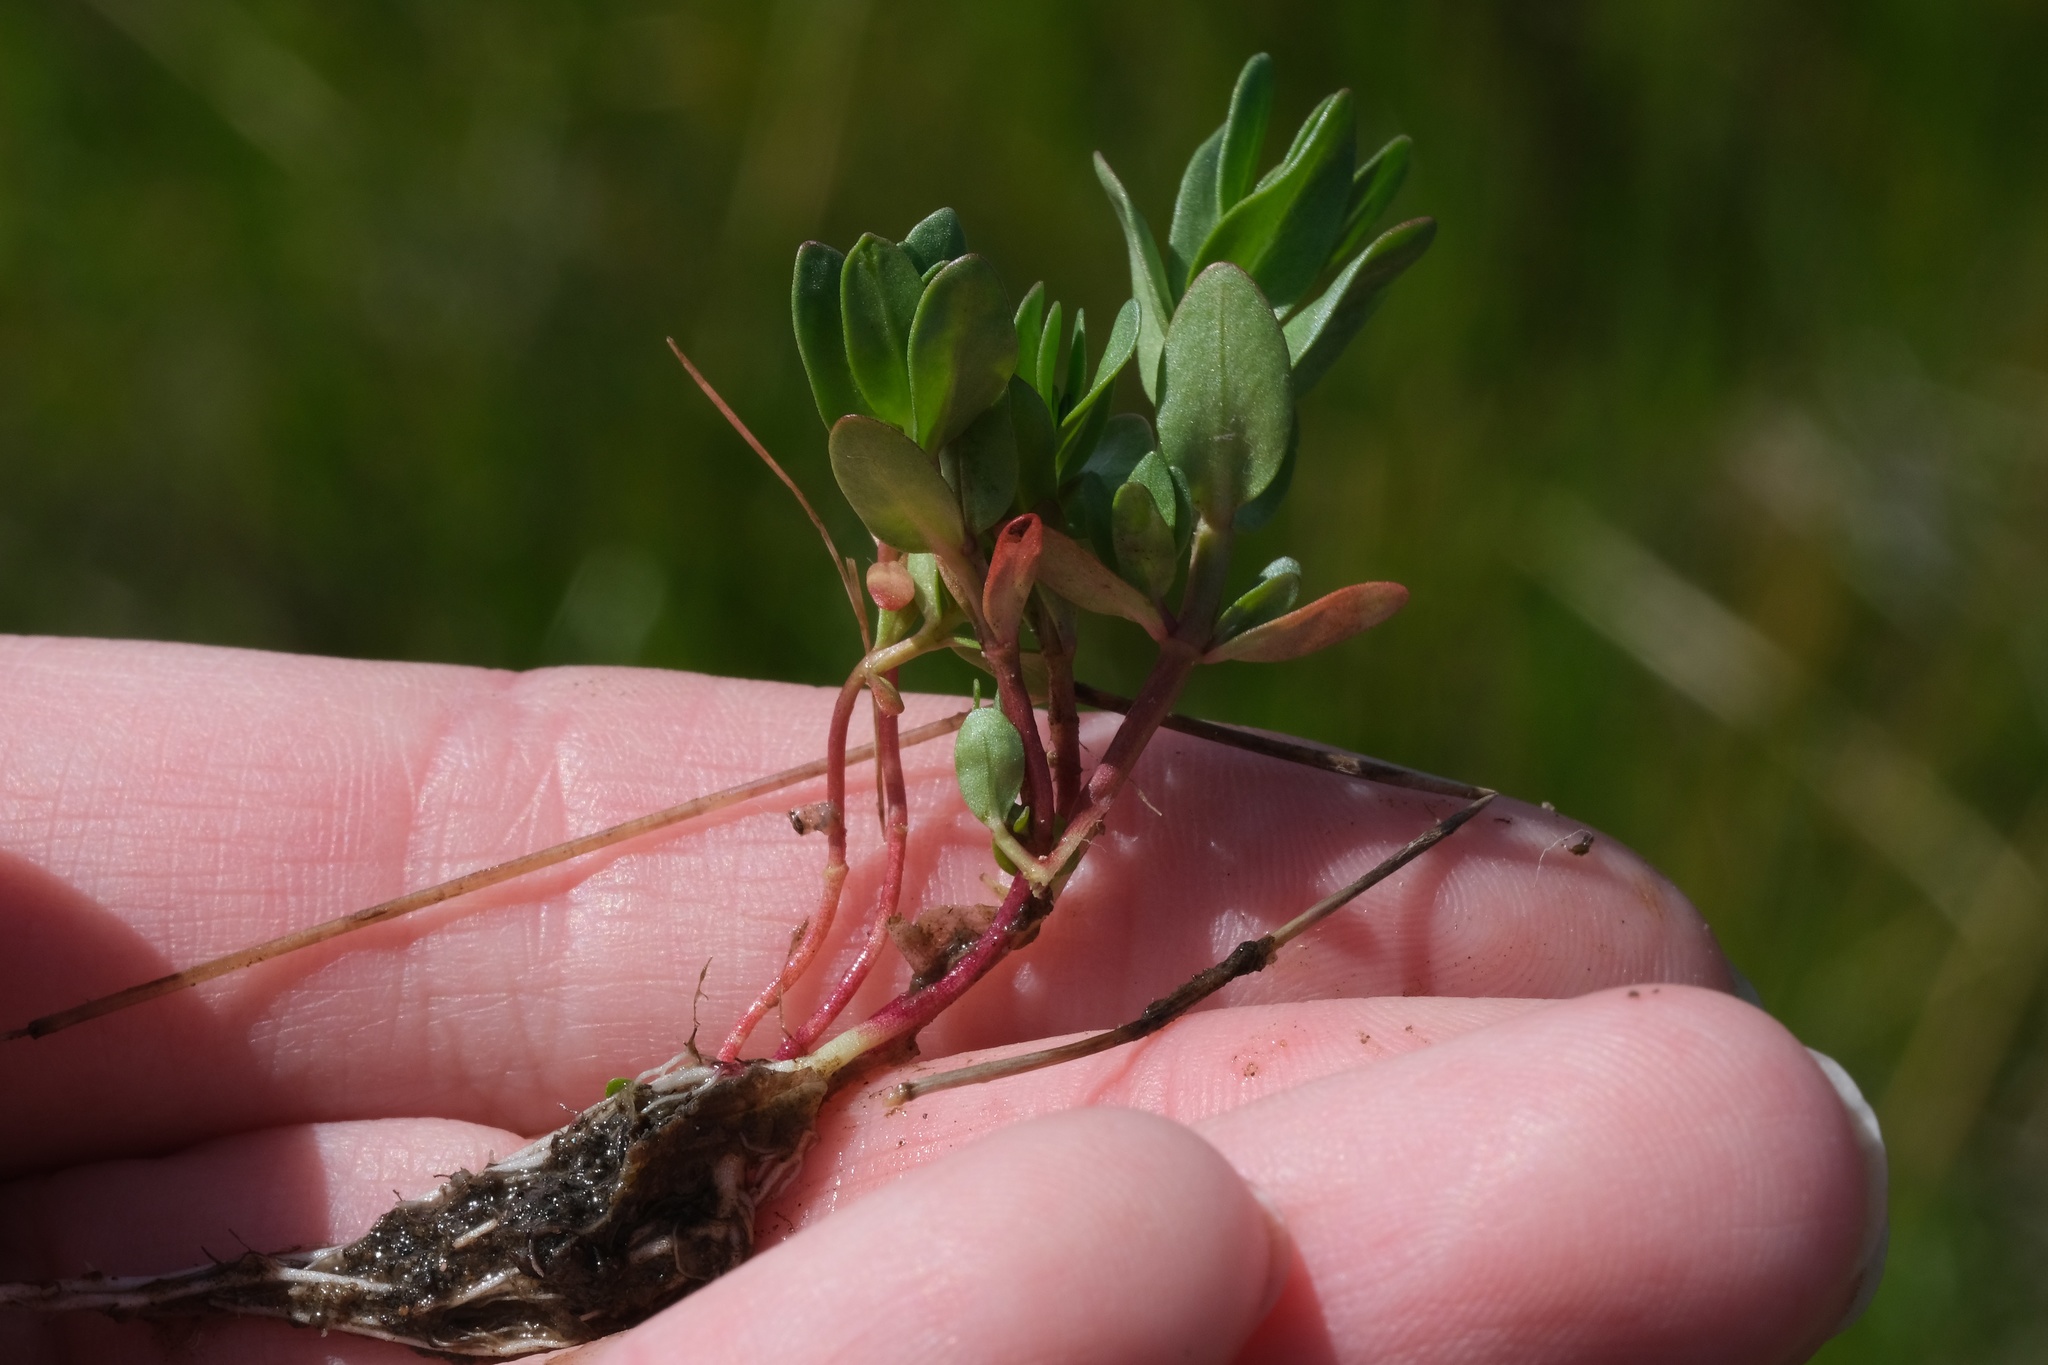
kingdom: Plantae
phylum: Tracheophyta
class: Magnoliopsida
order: Myrtales
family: Lythraceae
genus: Lythrum
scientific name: Lythrum hyssopifolia
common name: Grass-poly
